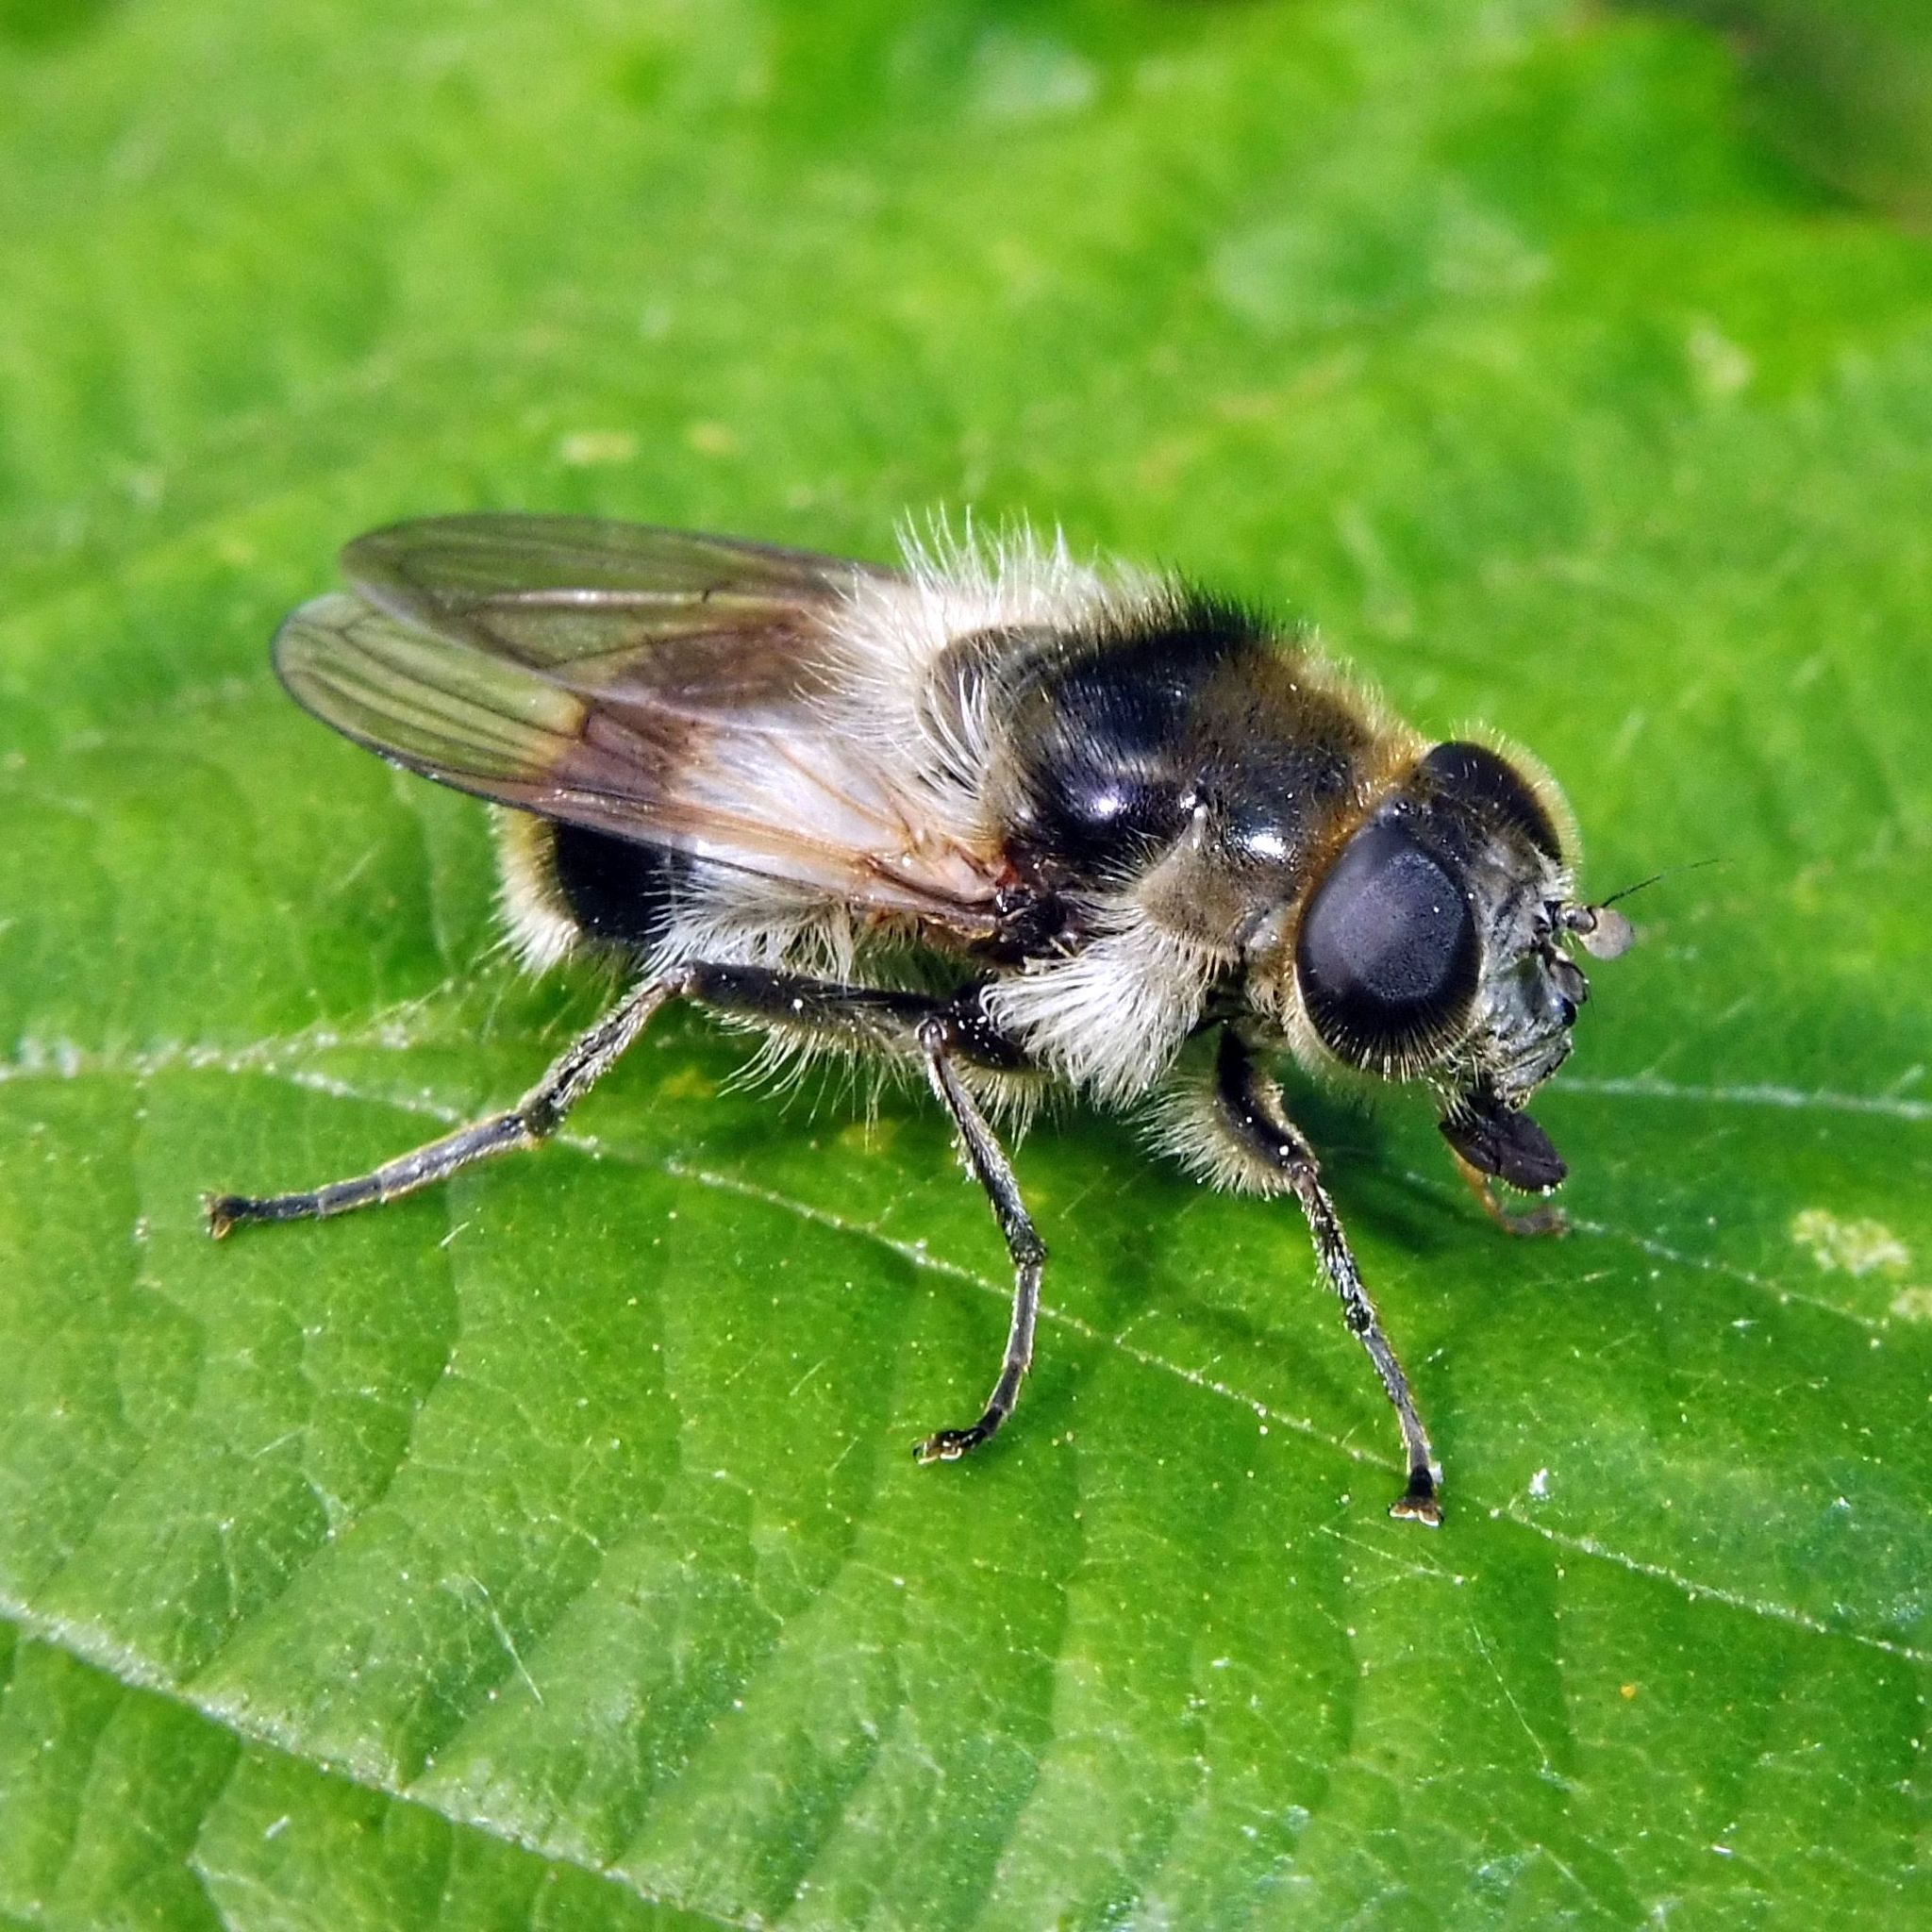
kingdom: Animalia
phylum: Arthropoda
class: Insecta
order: Diptera
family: Syrphidae
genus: Cheilosia
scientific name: Cheilosia illustrata
